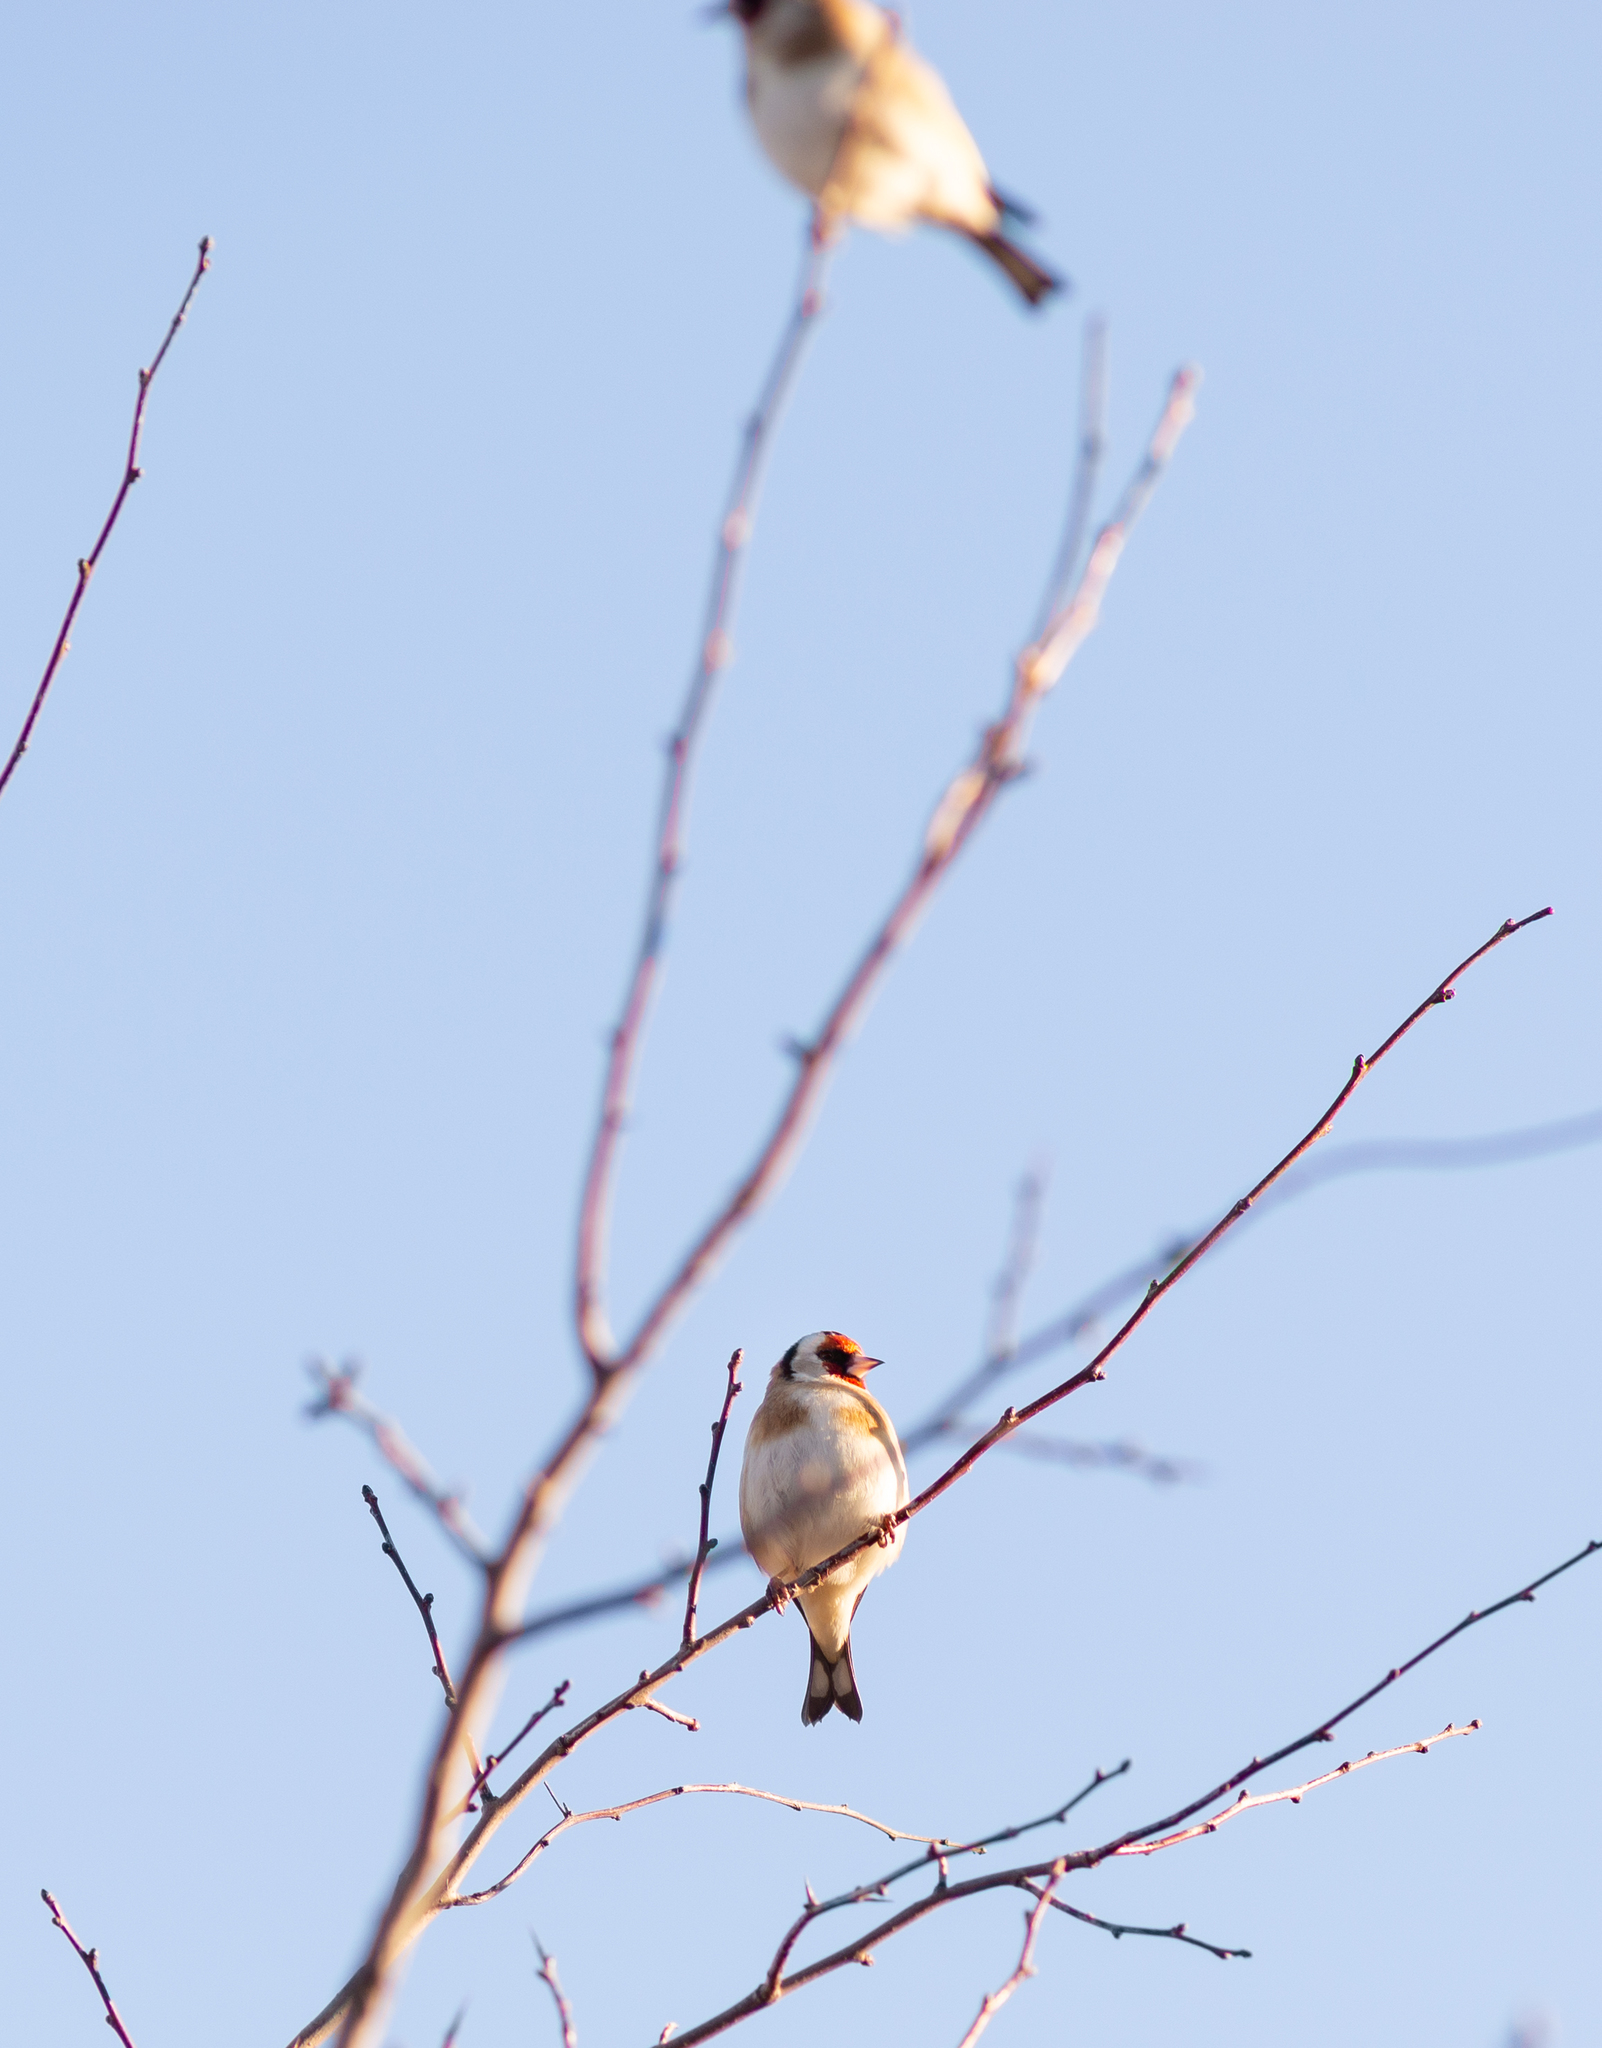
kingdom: Animalia
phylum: Chordata
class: Aves
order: Passeriformes
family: Fringillidae
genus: Carduelis
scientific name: Carduelis carduelis
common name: European goldfinch
